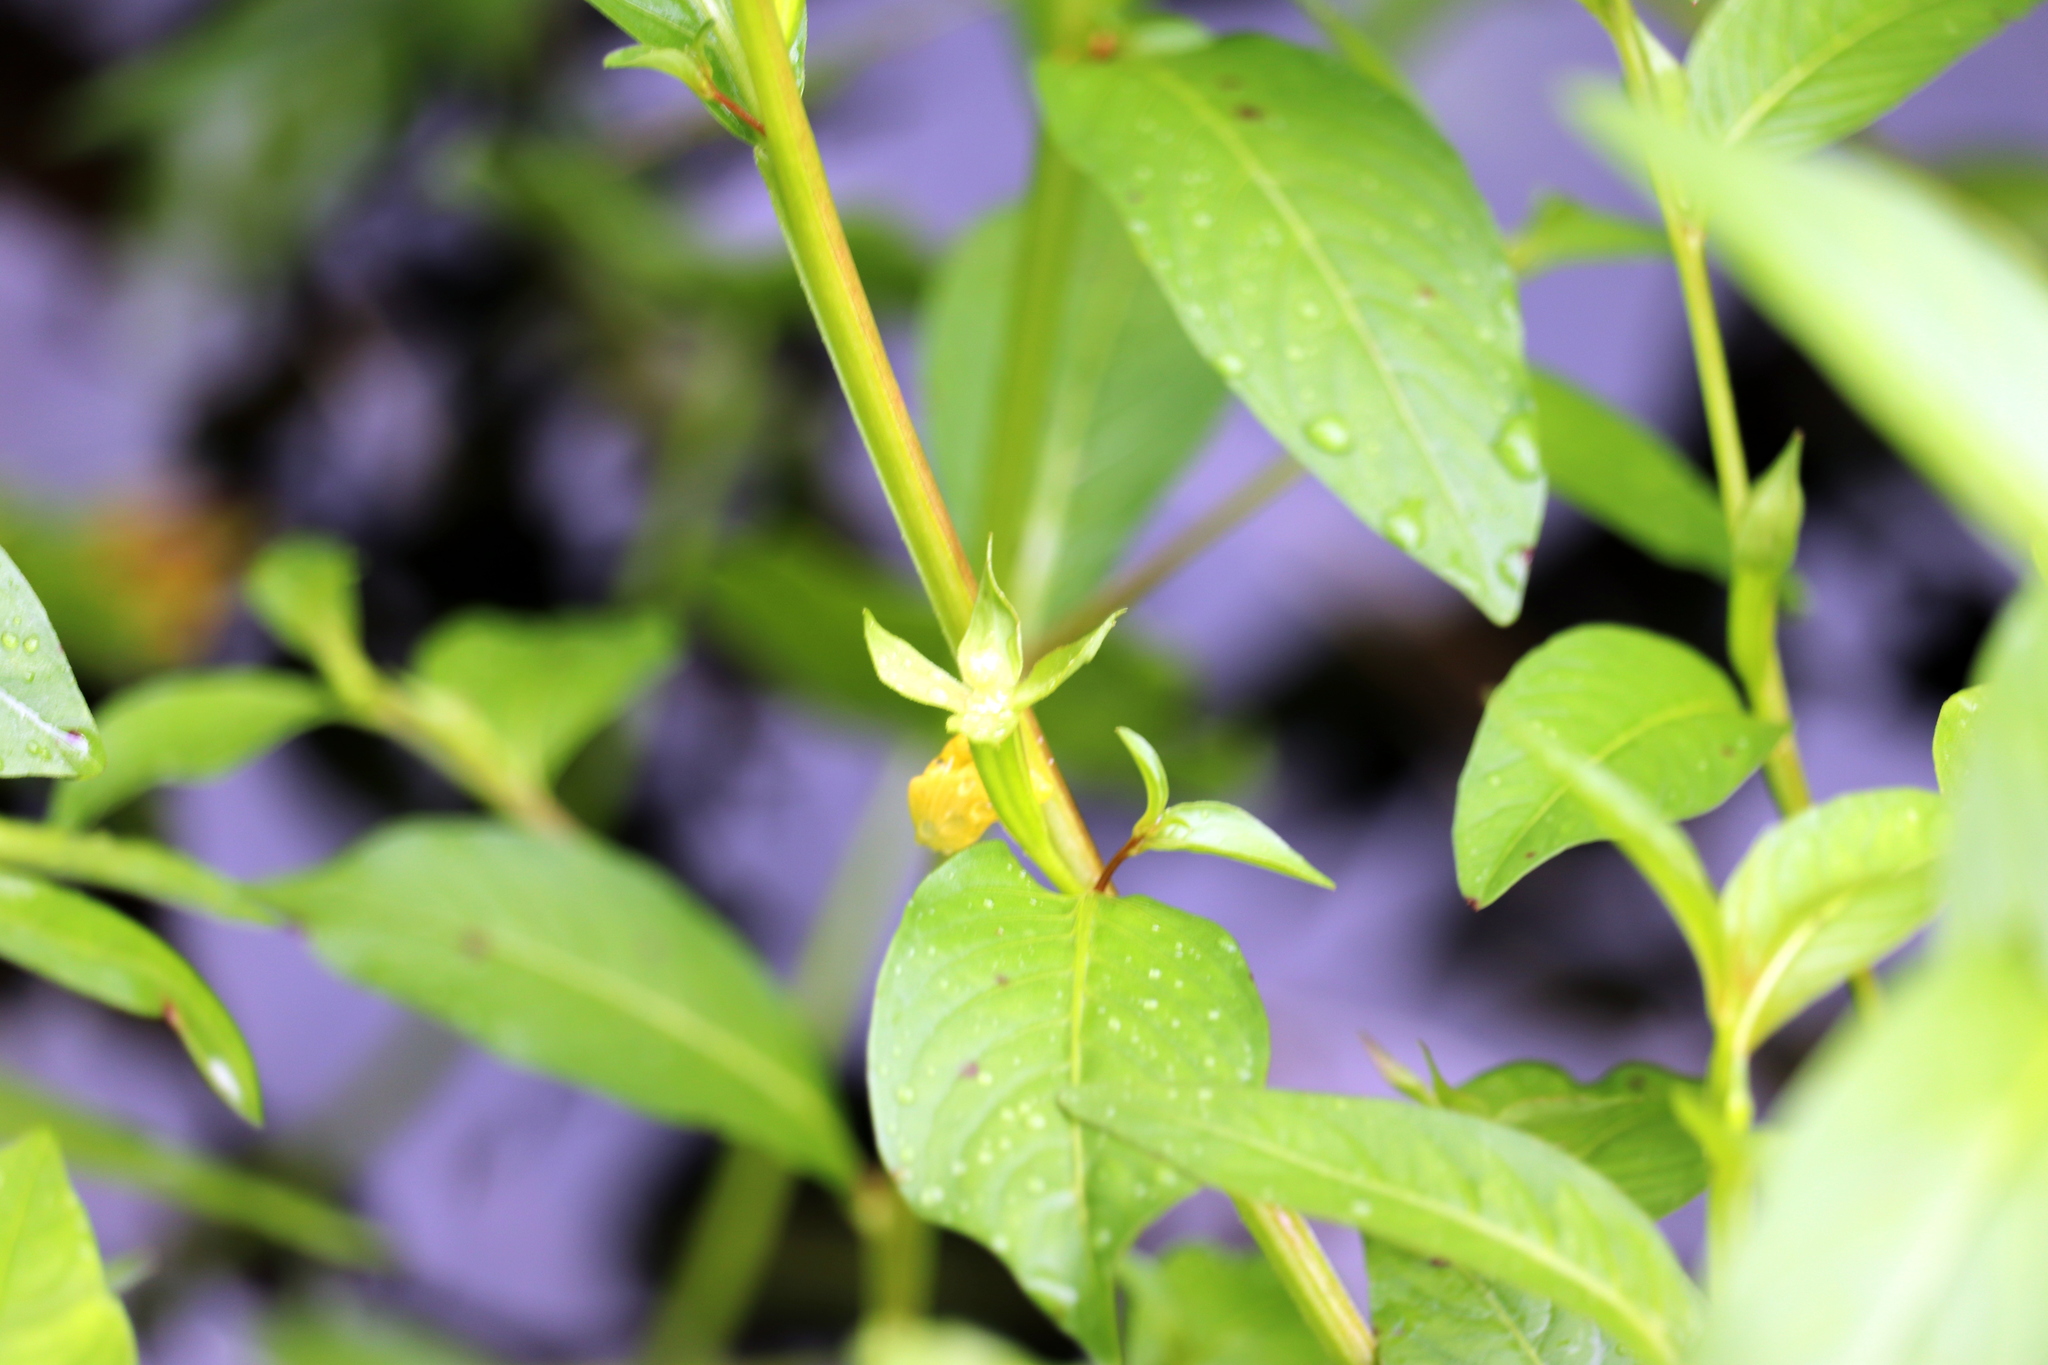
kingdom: Plantae
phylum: Tracheophyta
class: Magnoliopsida
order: Myrtales
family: Onagraceae
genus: Ludwigia
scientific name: Ludwigia decurrens
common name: Winged water-primrose
